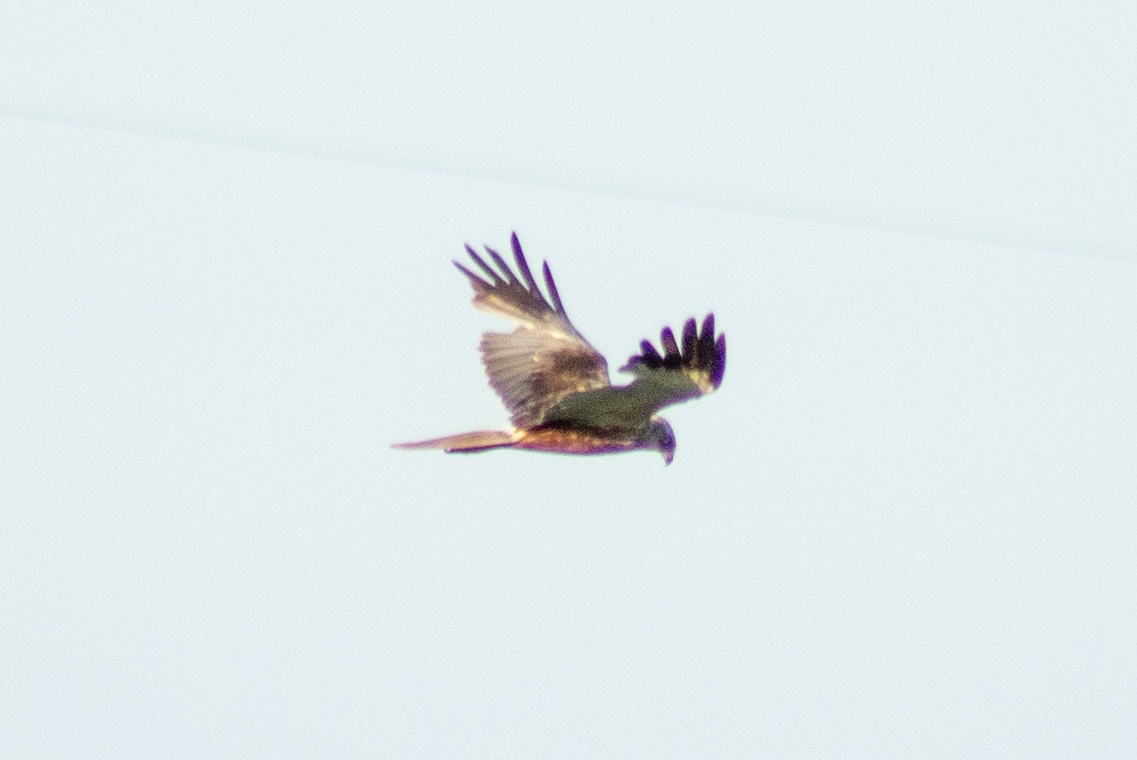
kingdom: Animalia
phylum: Chordata
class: Aves
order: Accipitriformes
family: Accipitridae
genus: Circus
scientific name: Circus aeruginosus
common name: Western marsh harrier
